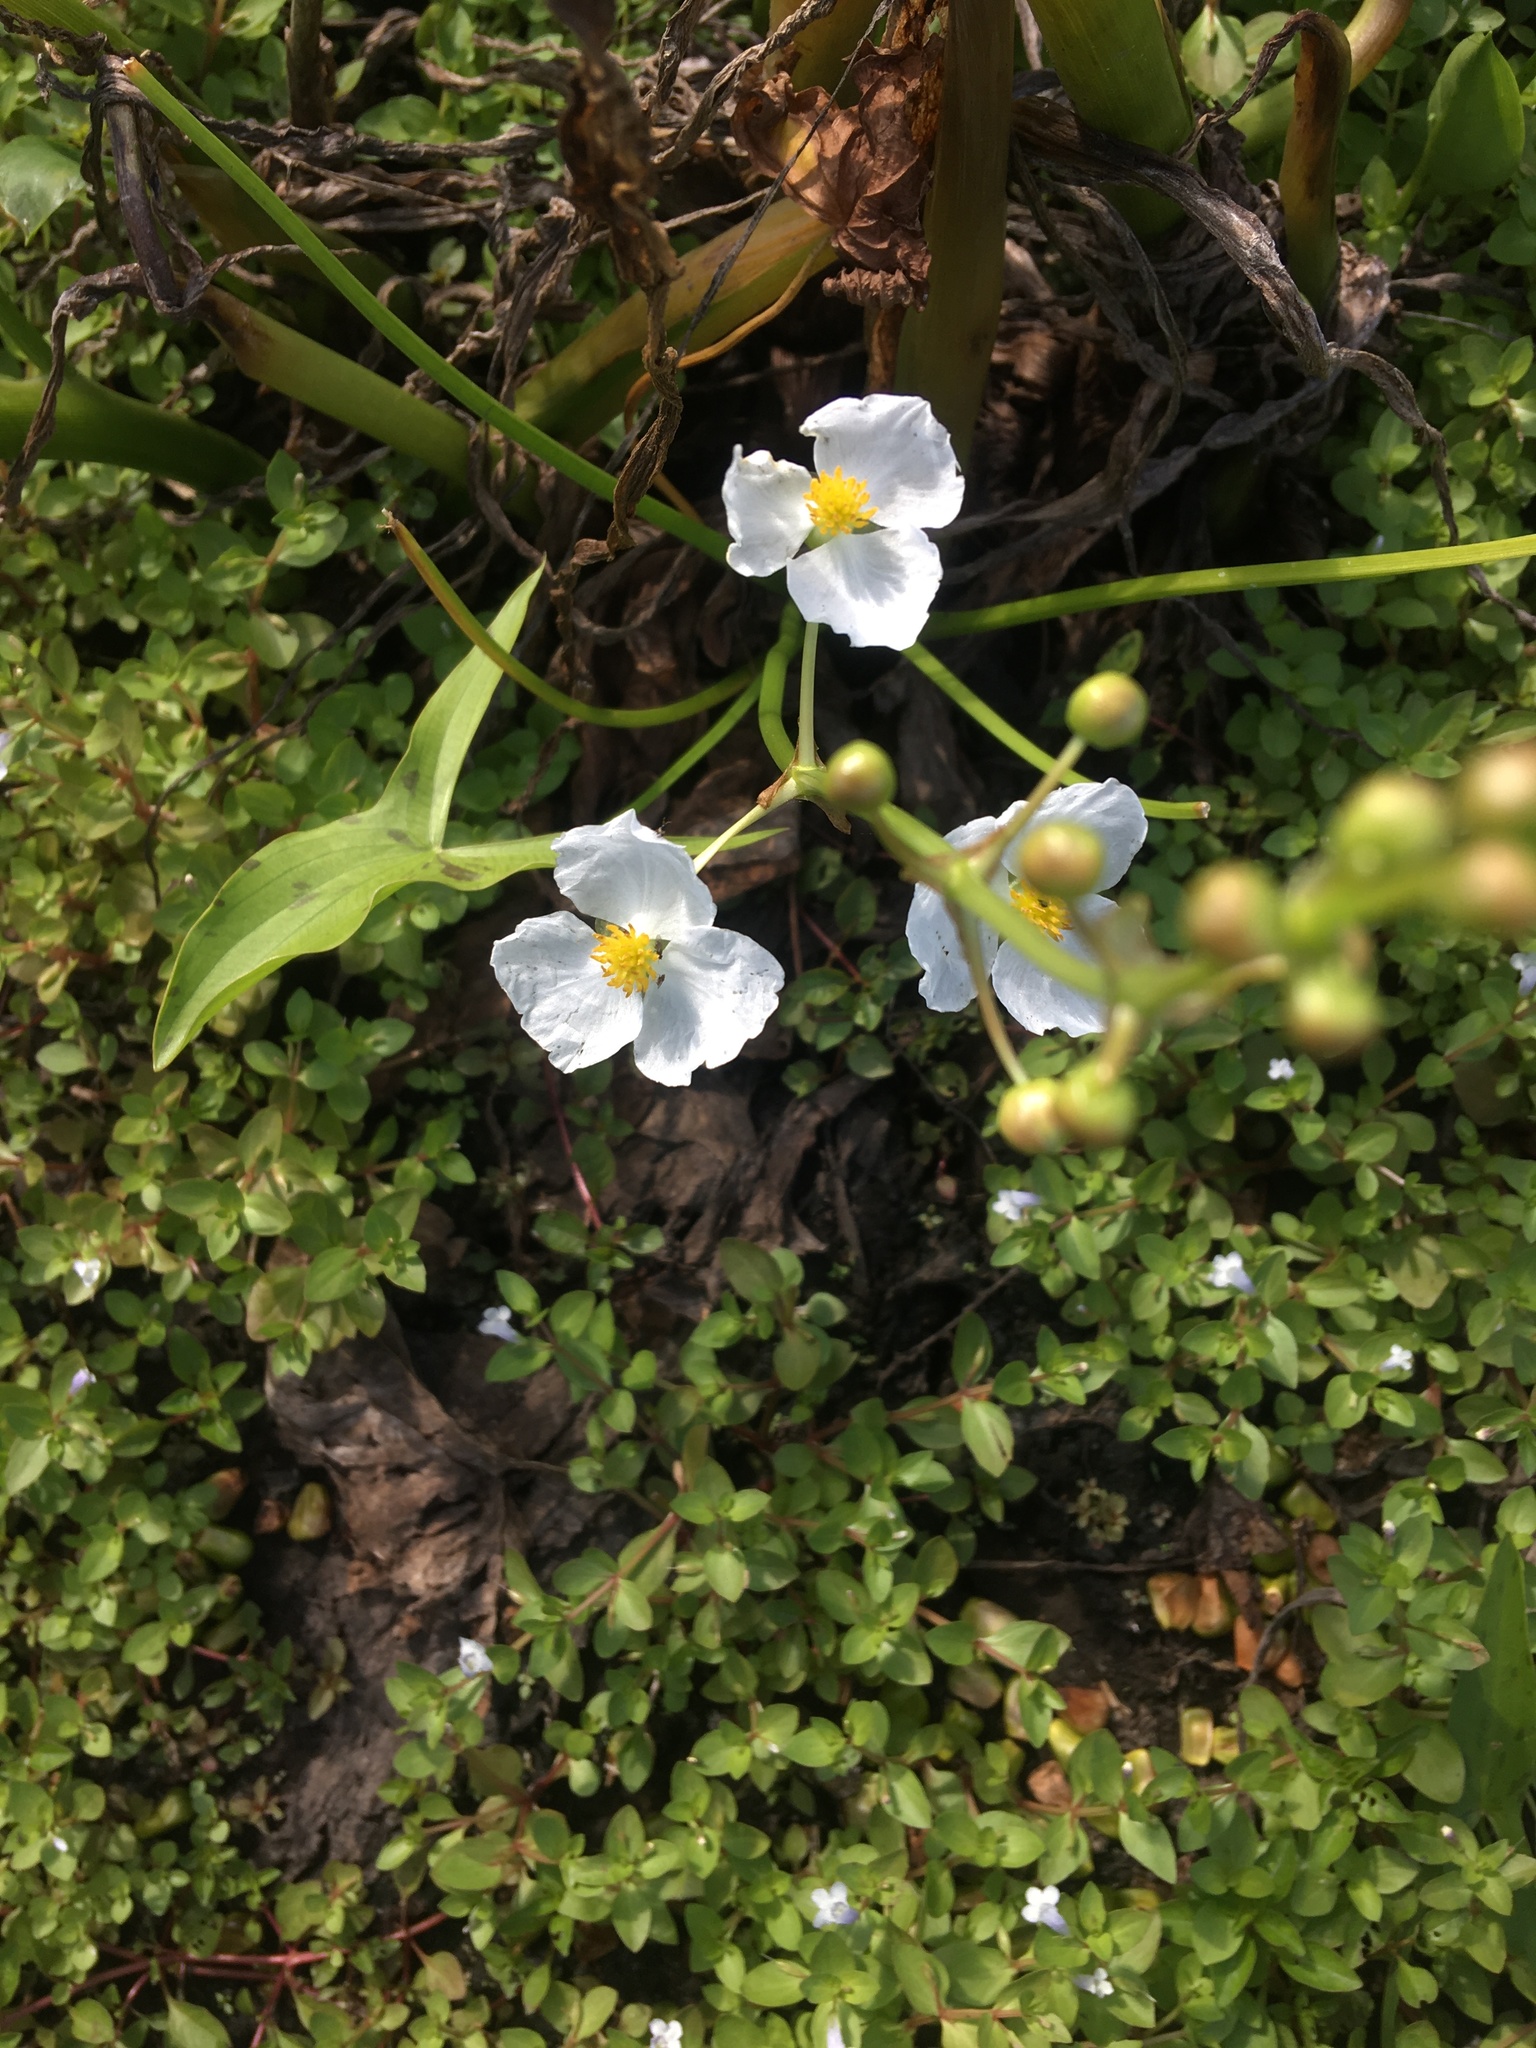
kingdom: Plantae
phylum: Tracheophyta
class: Liliopsida
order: Alismatales
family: Alismataceae
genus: Sagittaria
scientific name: Sagittaria latifolia
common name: Duck-potato
